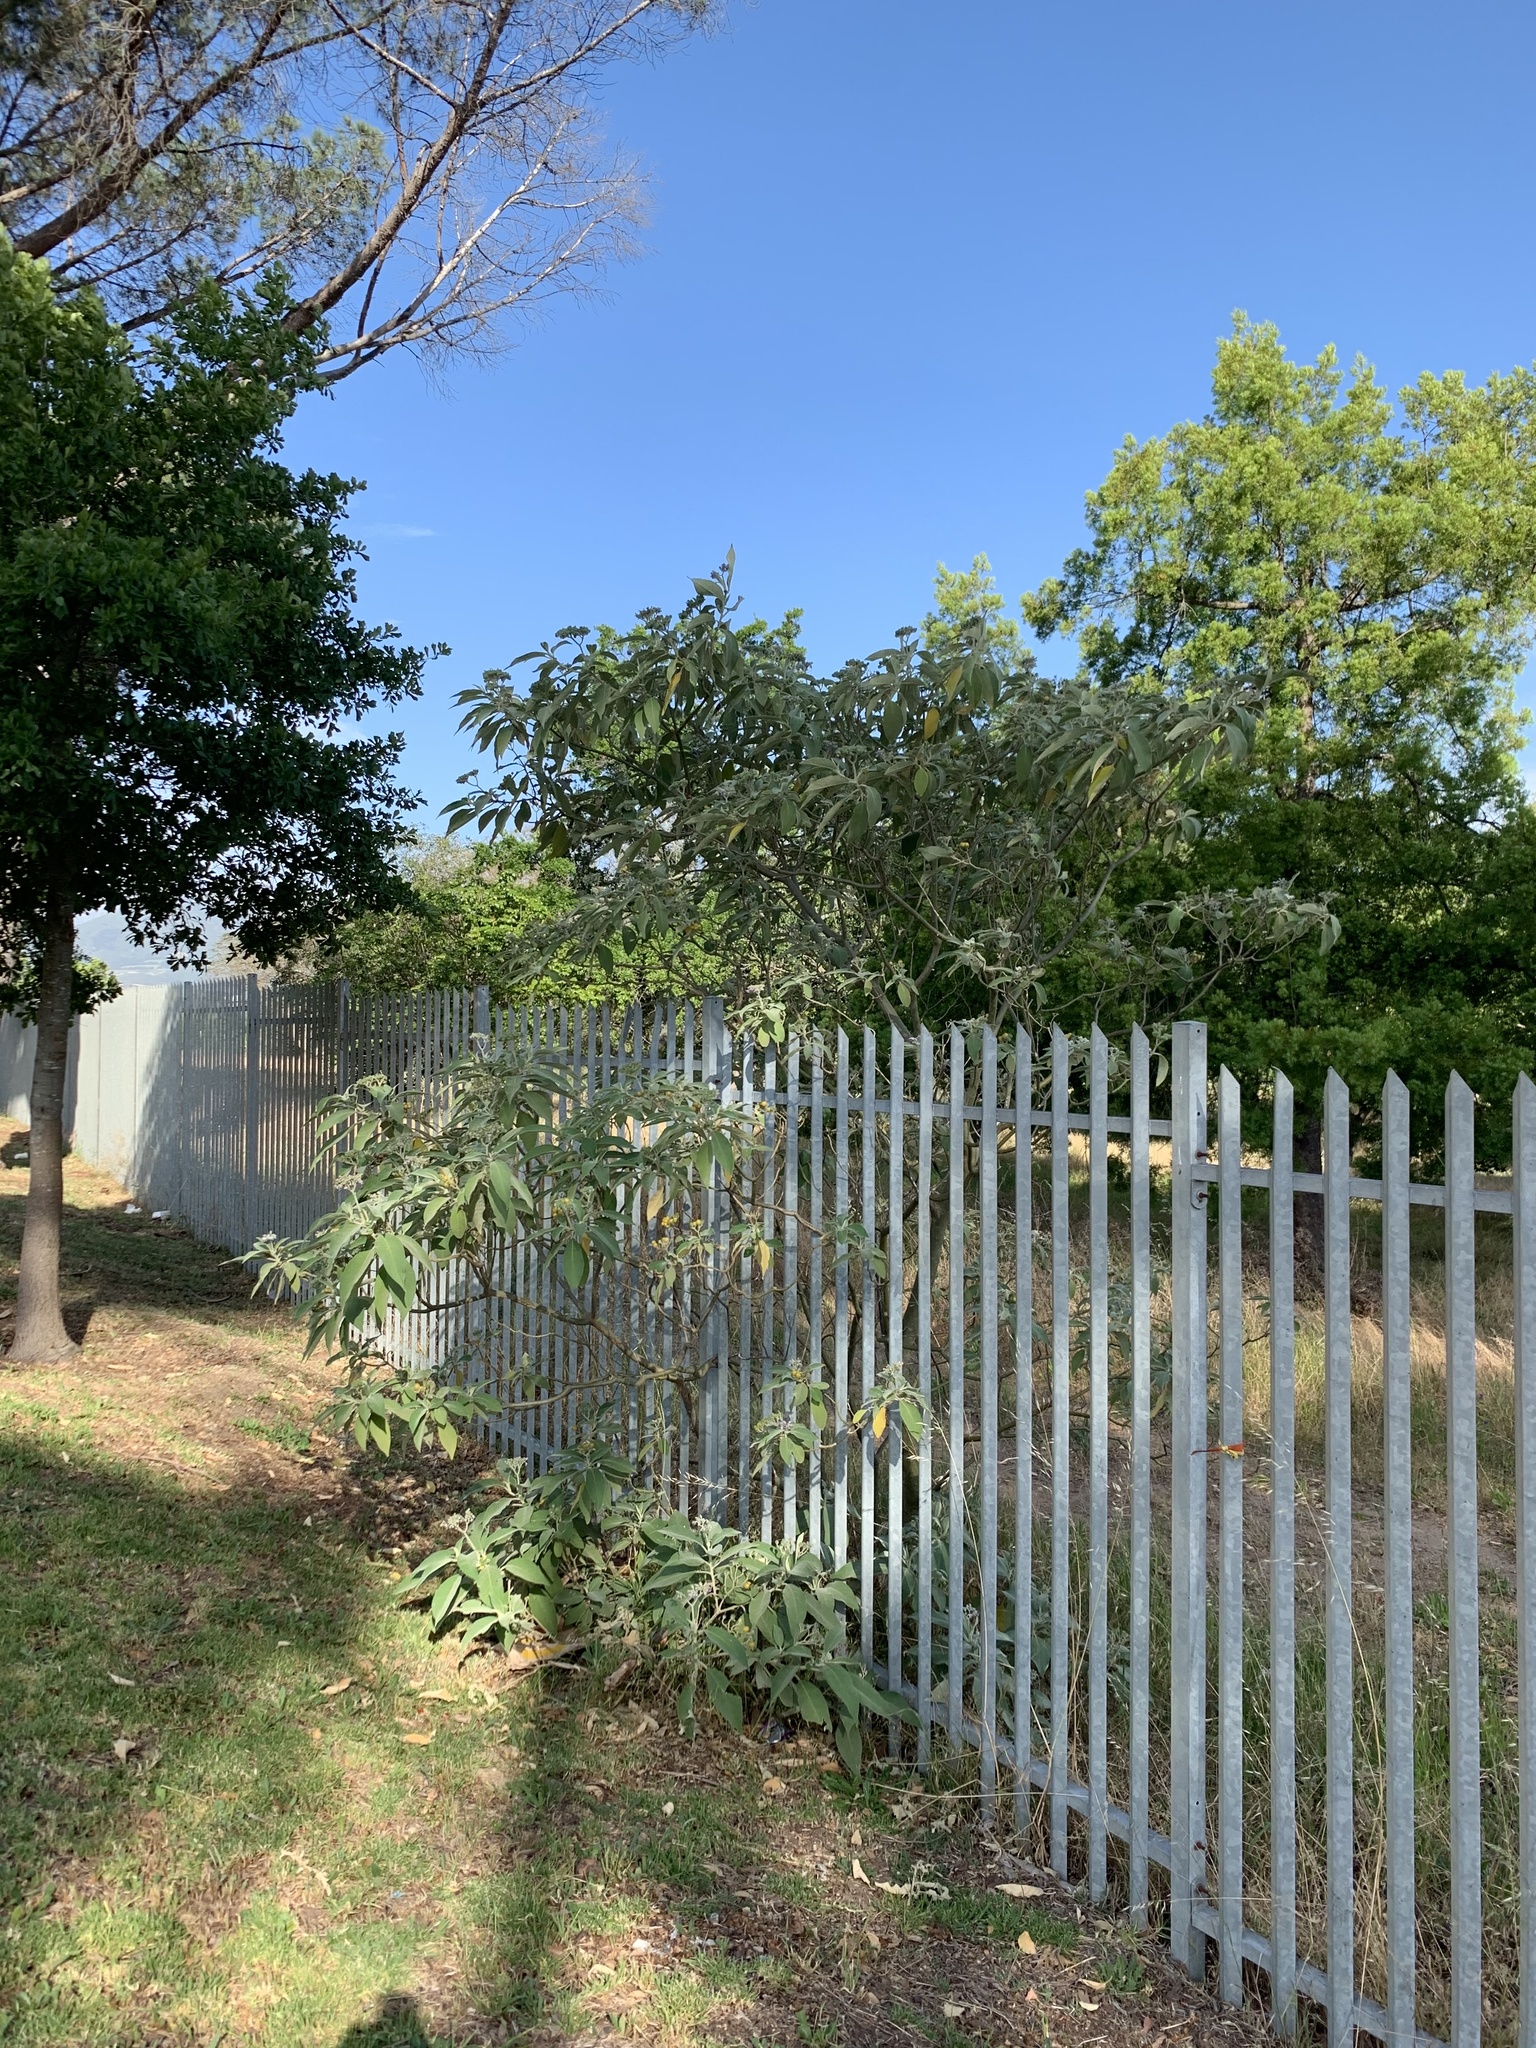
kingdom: Plantae
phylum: Tracheophyta
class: Magnoliopsida
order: Solanales
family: Solanaceae
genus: Solanum
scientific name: Solanum mauritianum
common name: Earleaf nightshade
